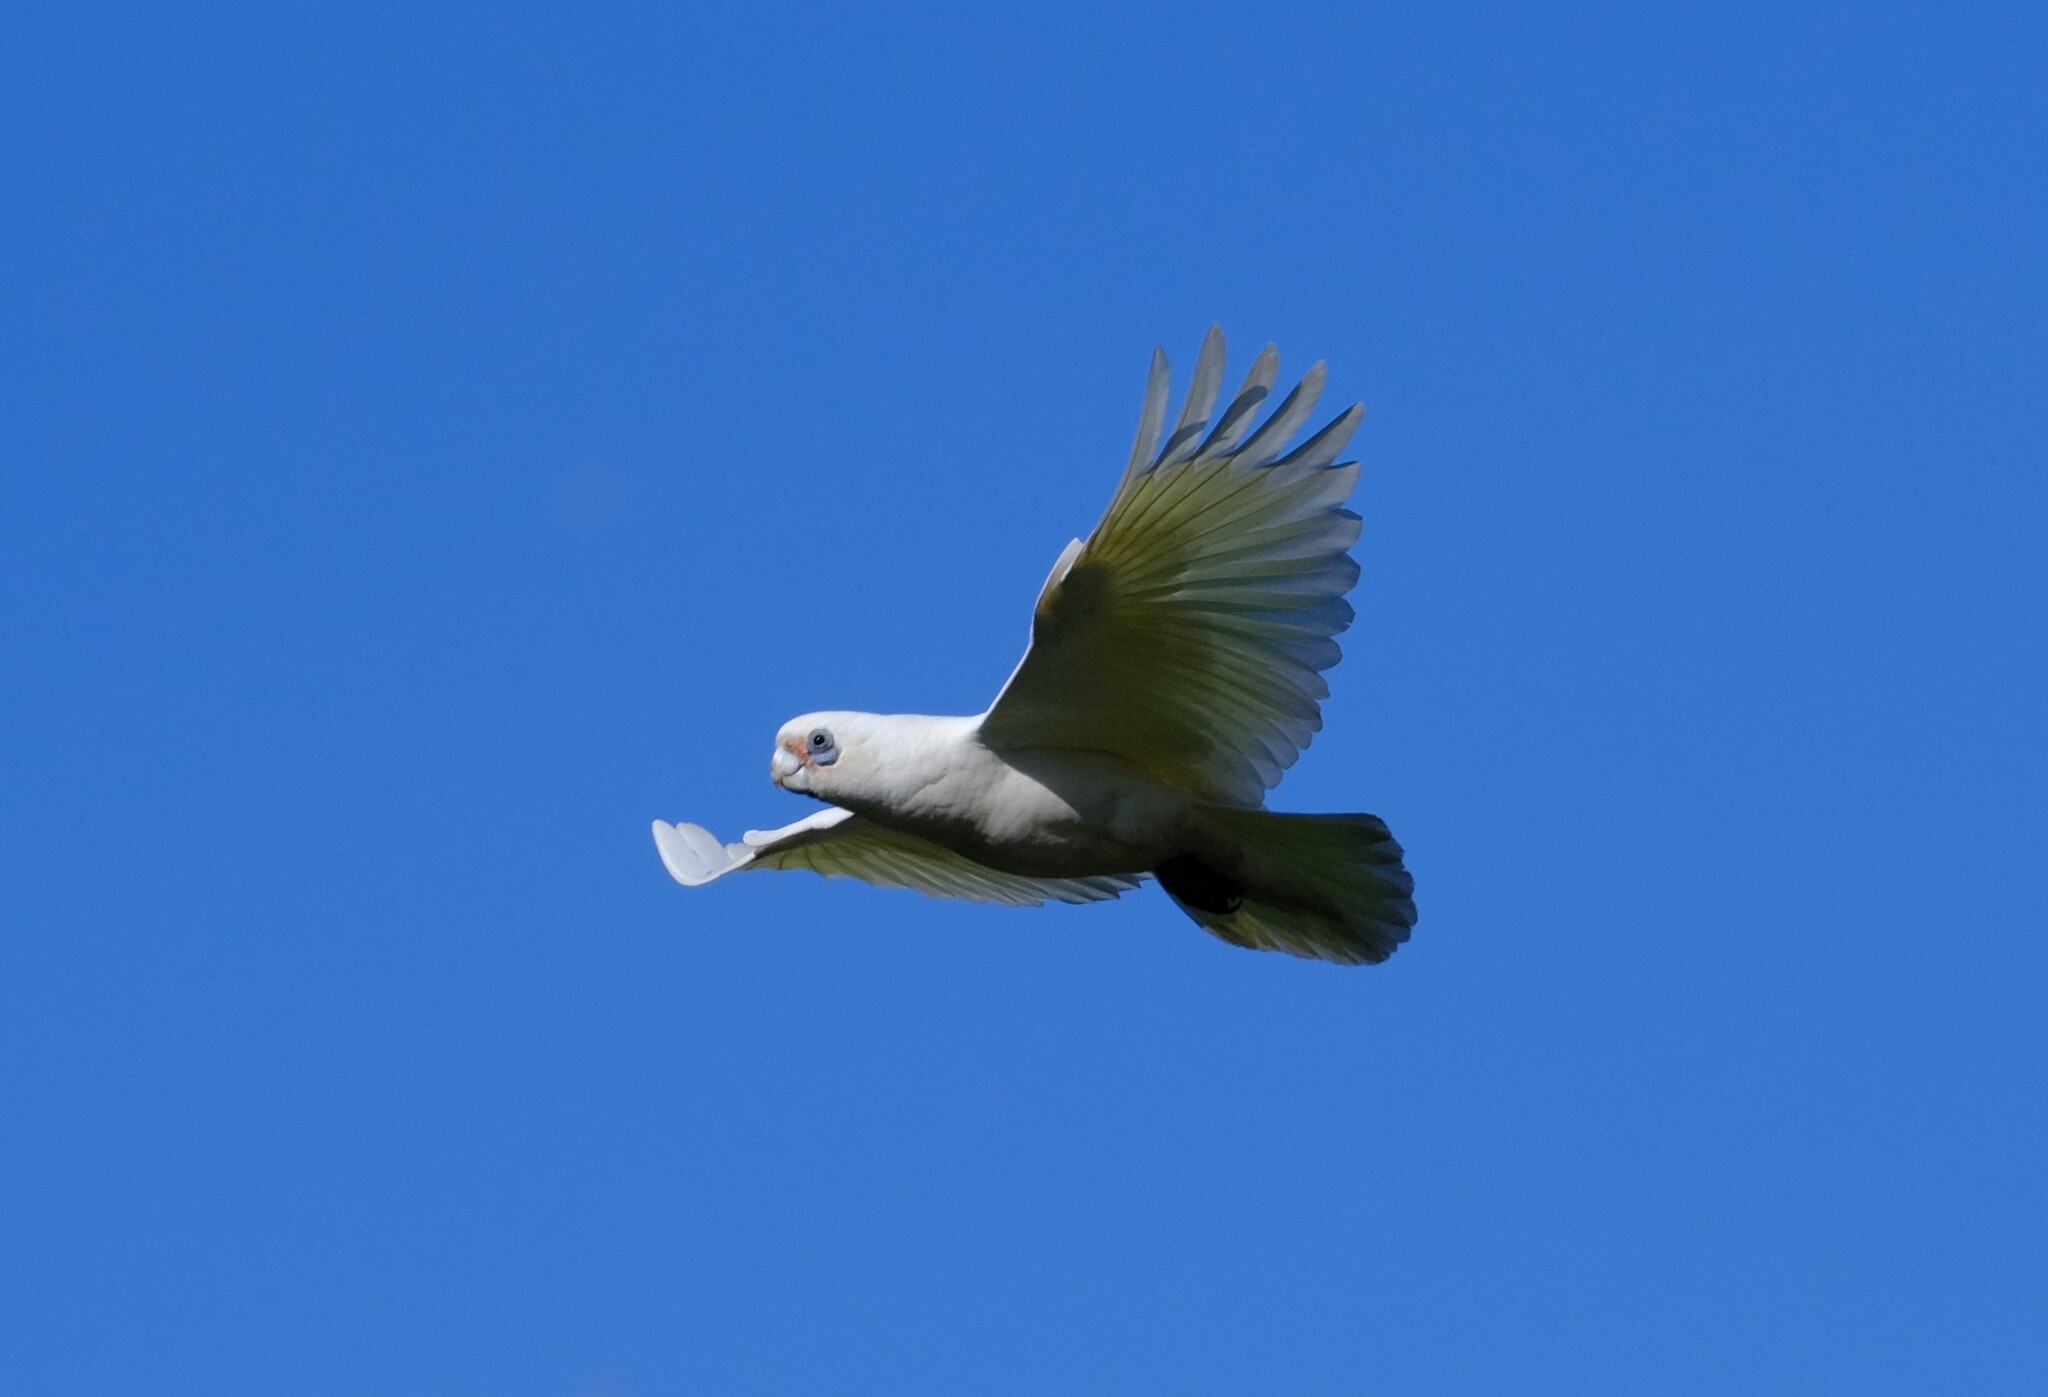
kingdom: Animalia
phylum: Chordata
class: Aves
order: Psittaciformes
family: Psittacidae
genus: Cacatua
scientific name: Cacatua sanguinea
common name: Little corella
